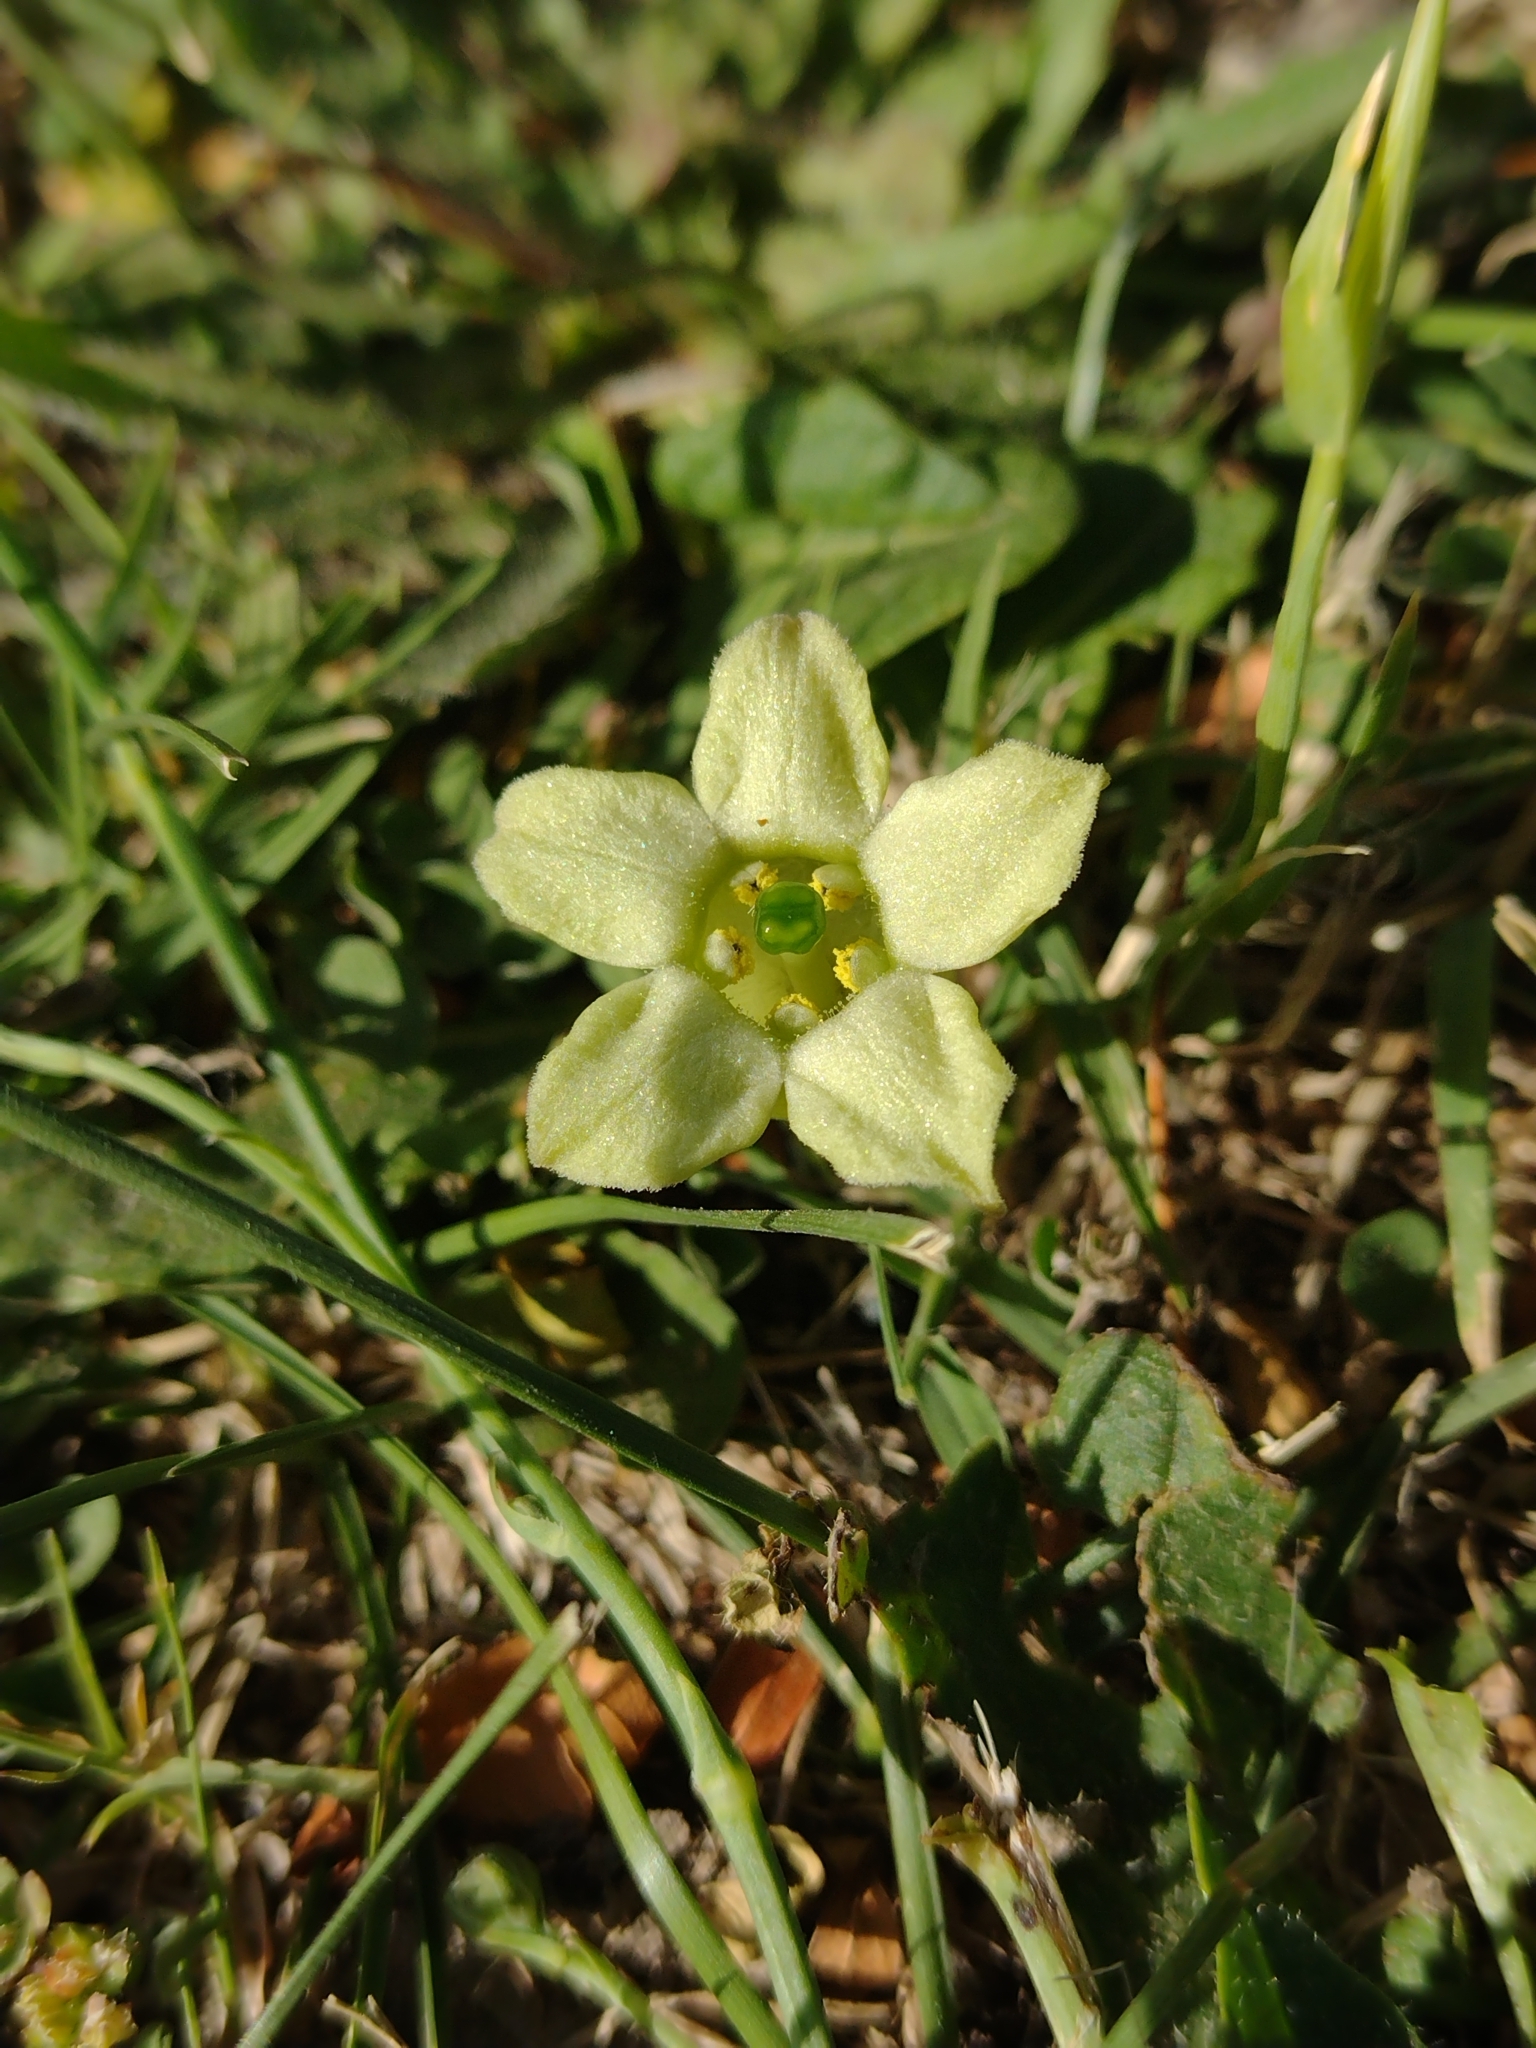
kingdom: Plantae
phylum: Tracheophyta
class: Magnoliopsida
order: Solanales
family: Solanaceae
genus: Jaborosa
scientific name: Jaborosa runcinata
